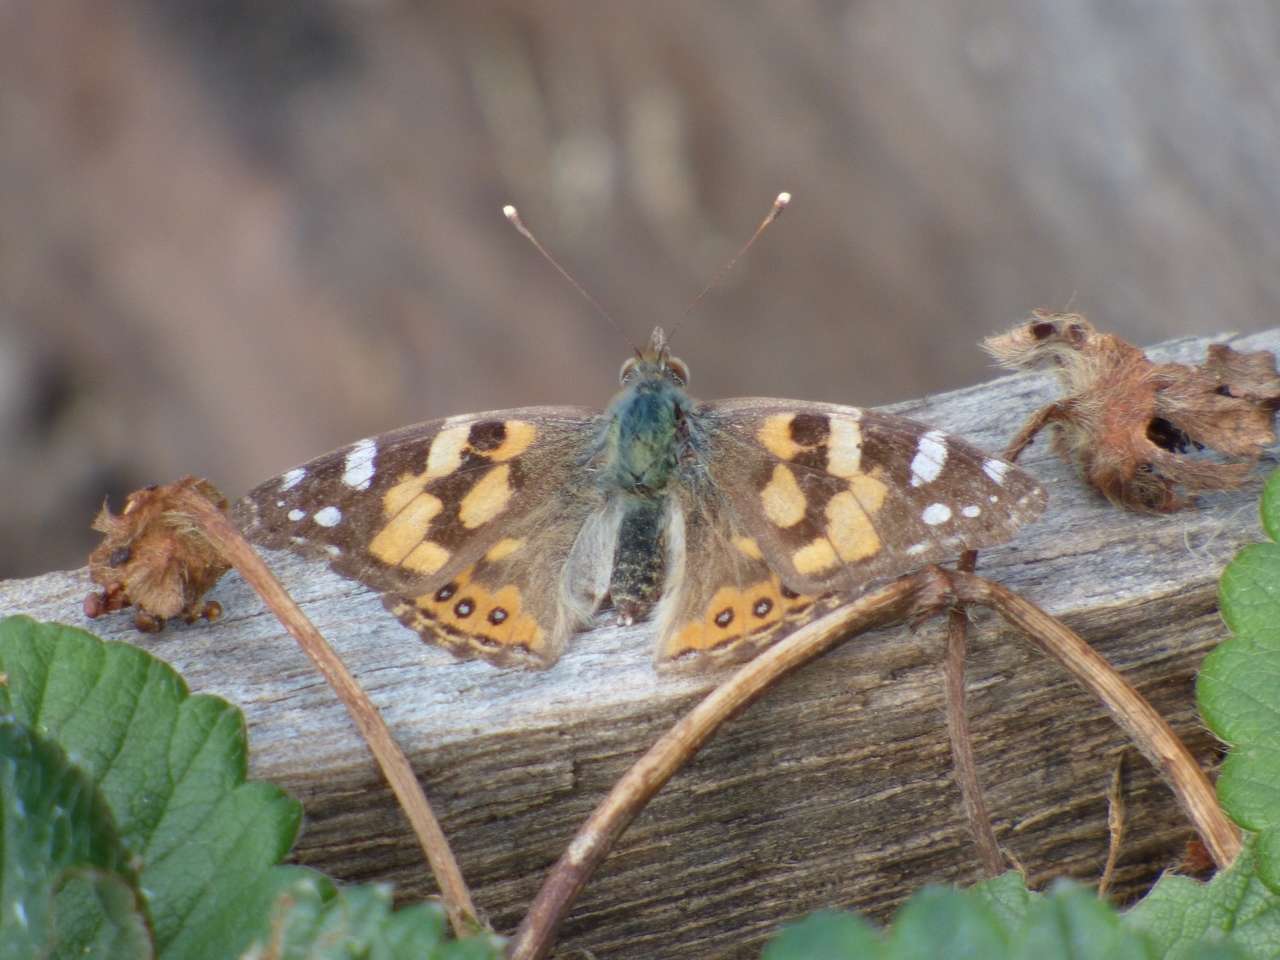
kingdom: Animalia
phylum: Arthropoda
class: Insecta
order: Lepidoptera
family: Nymphalidae
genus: Vanessa
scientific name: Vanessa kershawi
